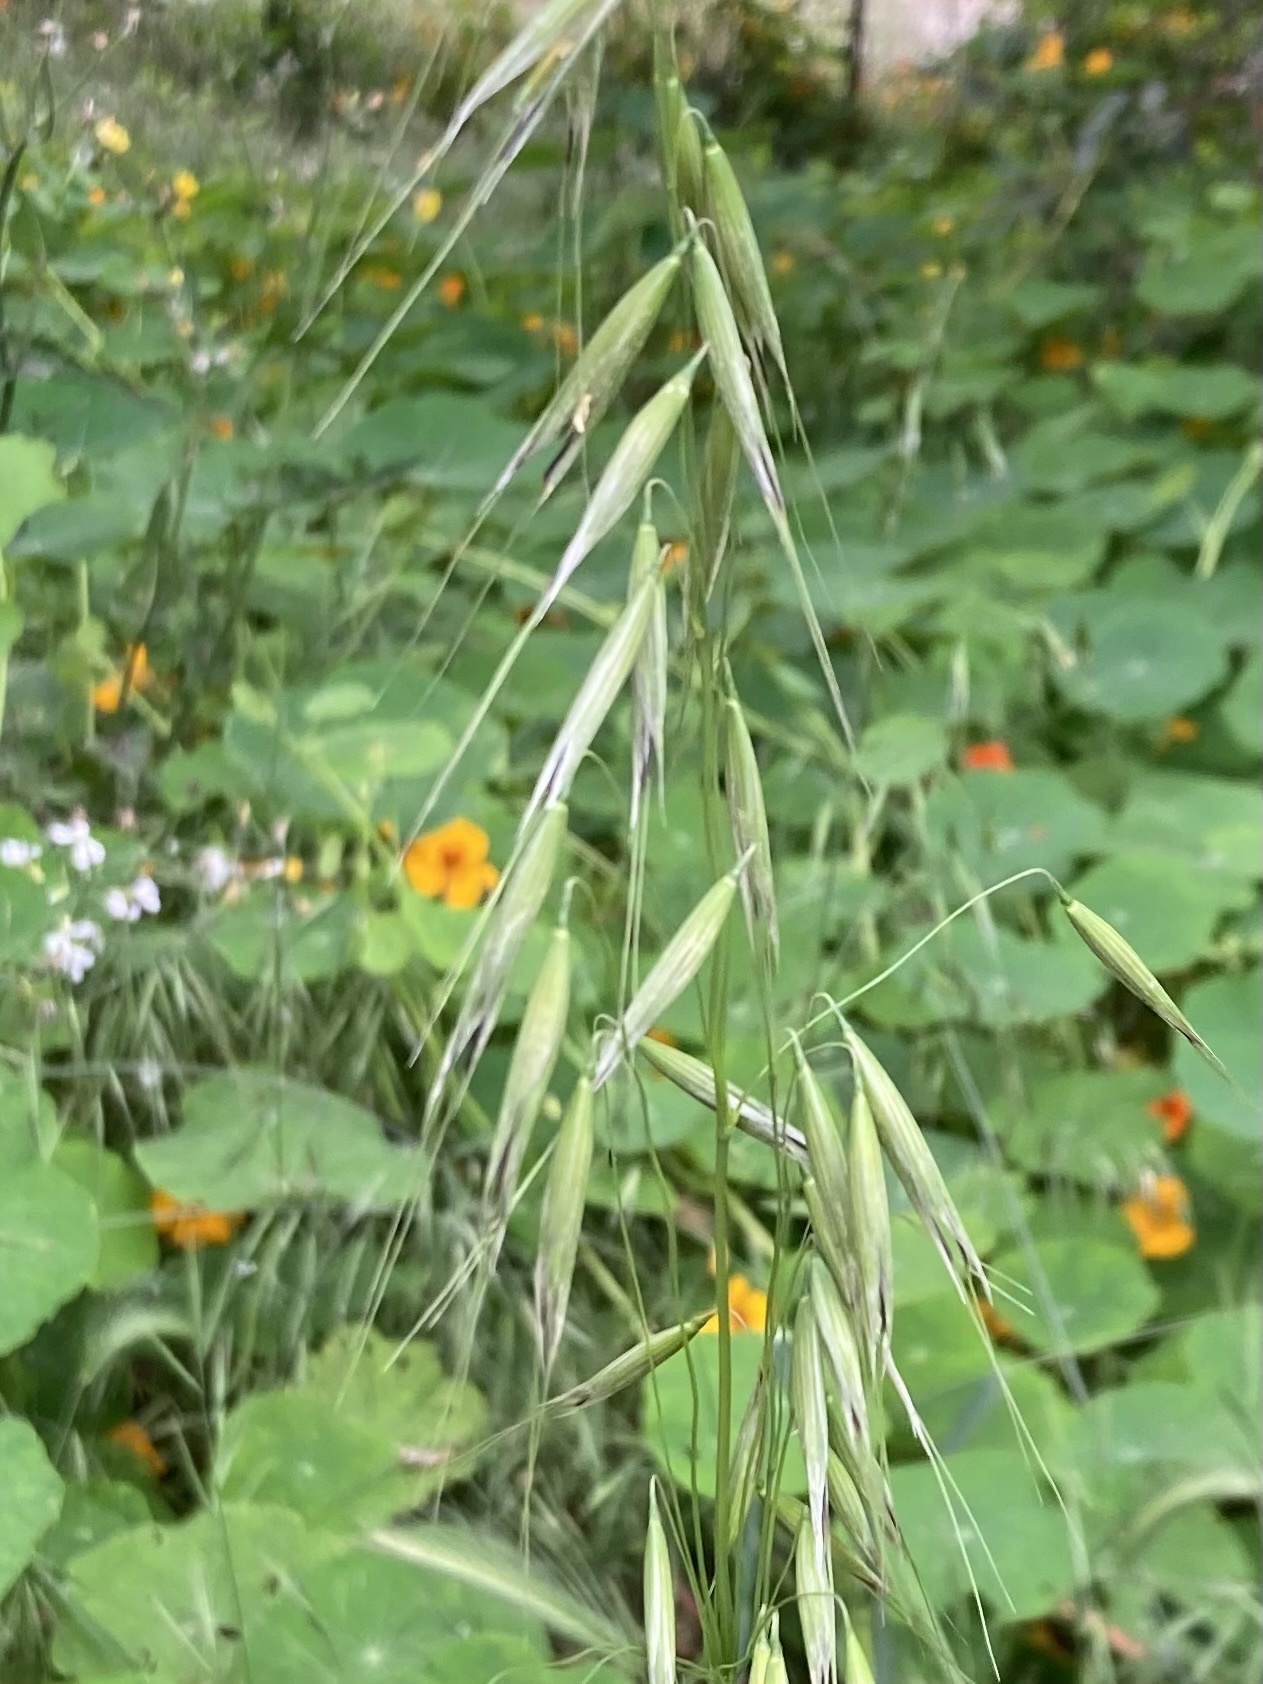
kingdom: Plantae
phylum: Tracheophyta
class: Liliopsida
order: Poales
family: Poaceae
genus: Avena
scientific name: Avena barbata
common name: Slender oat
